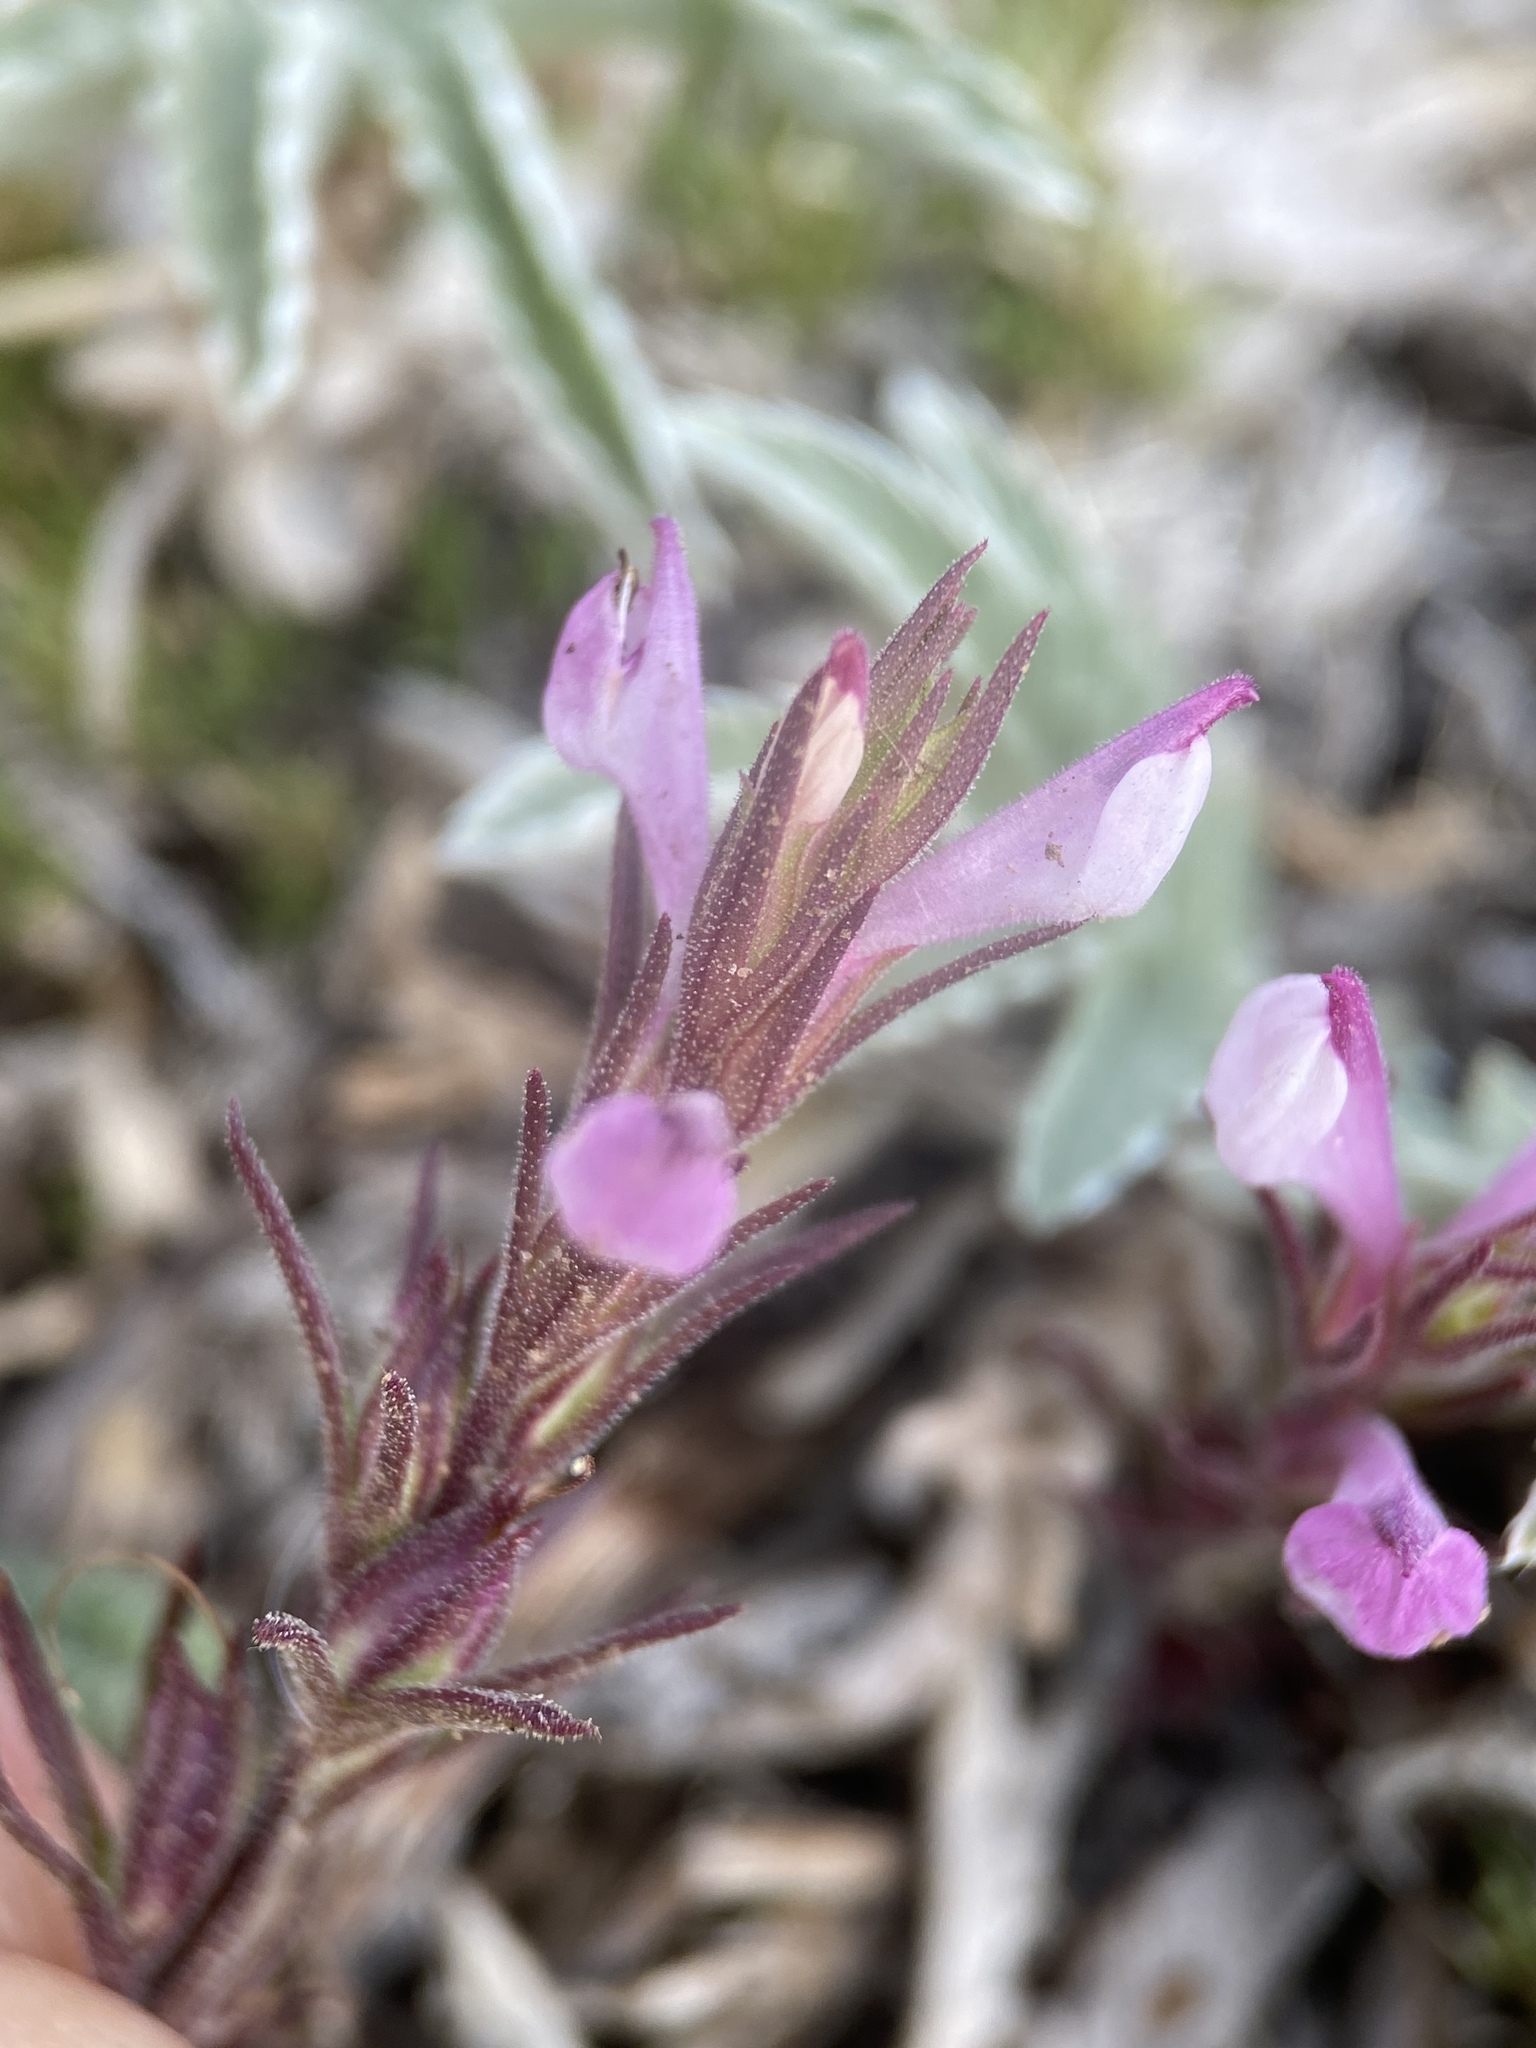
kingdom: Plantae
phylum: Tracheophyta
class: Magnoliopsida
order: Lamiales
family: Orobanchaceae
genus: Orthocarpus
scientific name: Orthocarpus purpureoalbus
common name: Violet owl-clover
